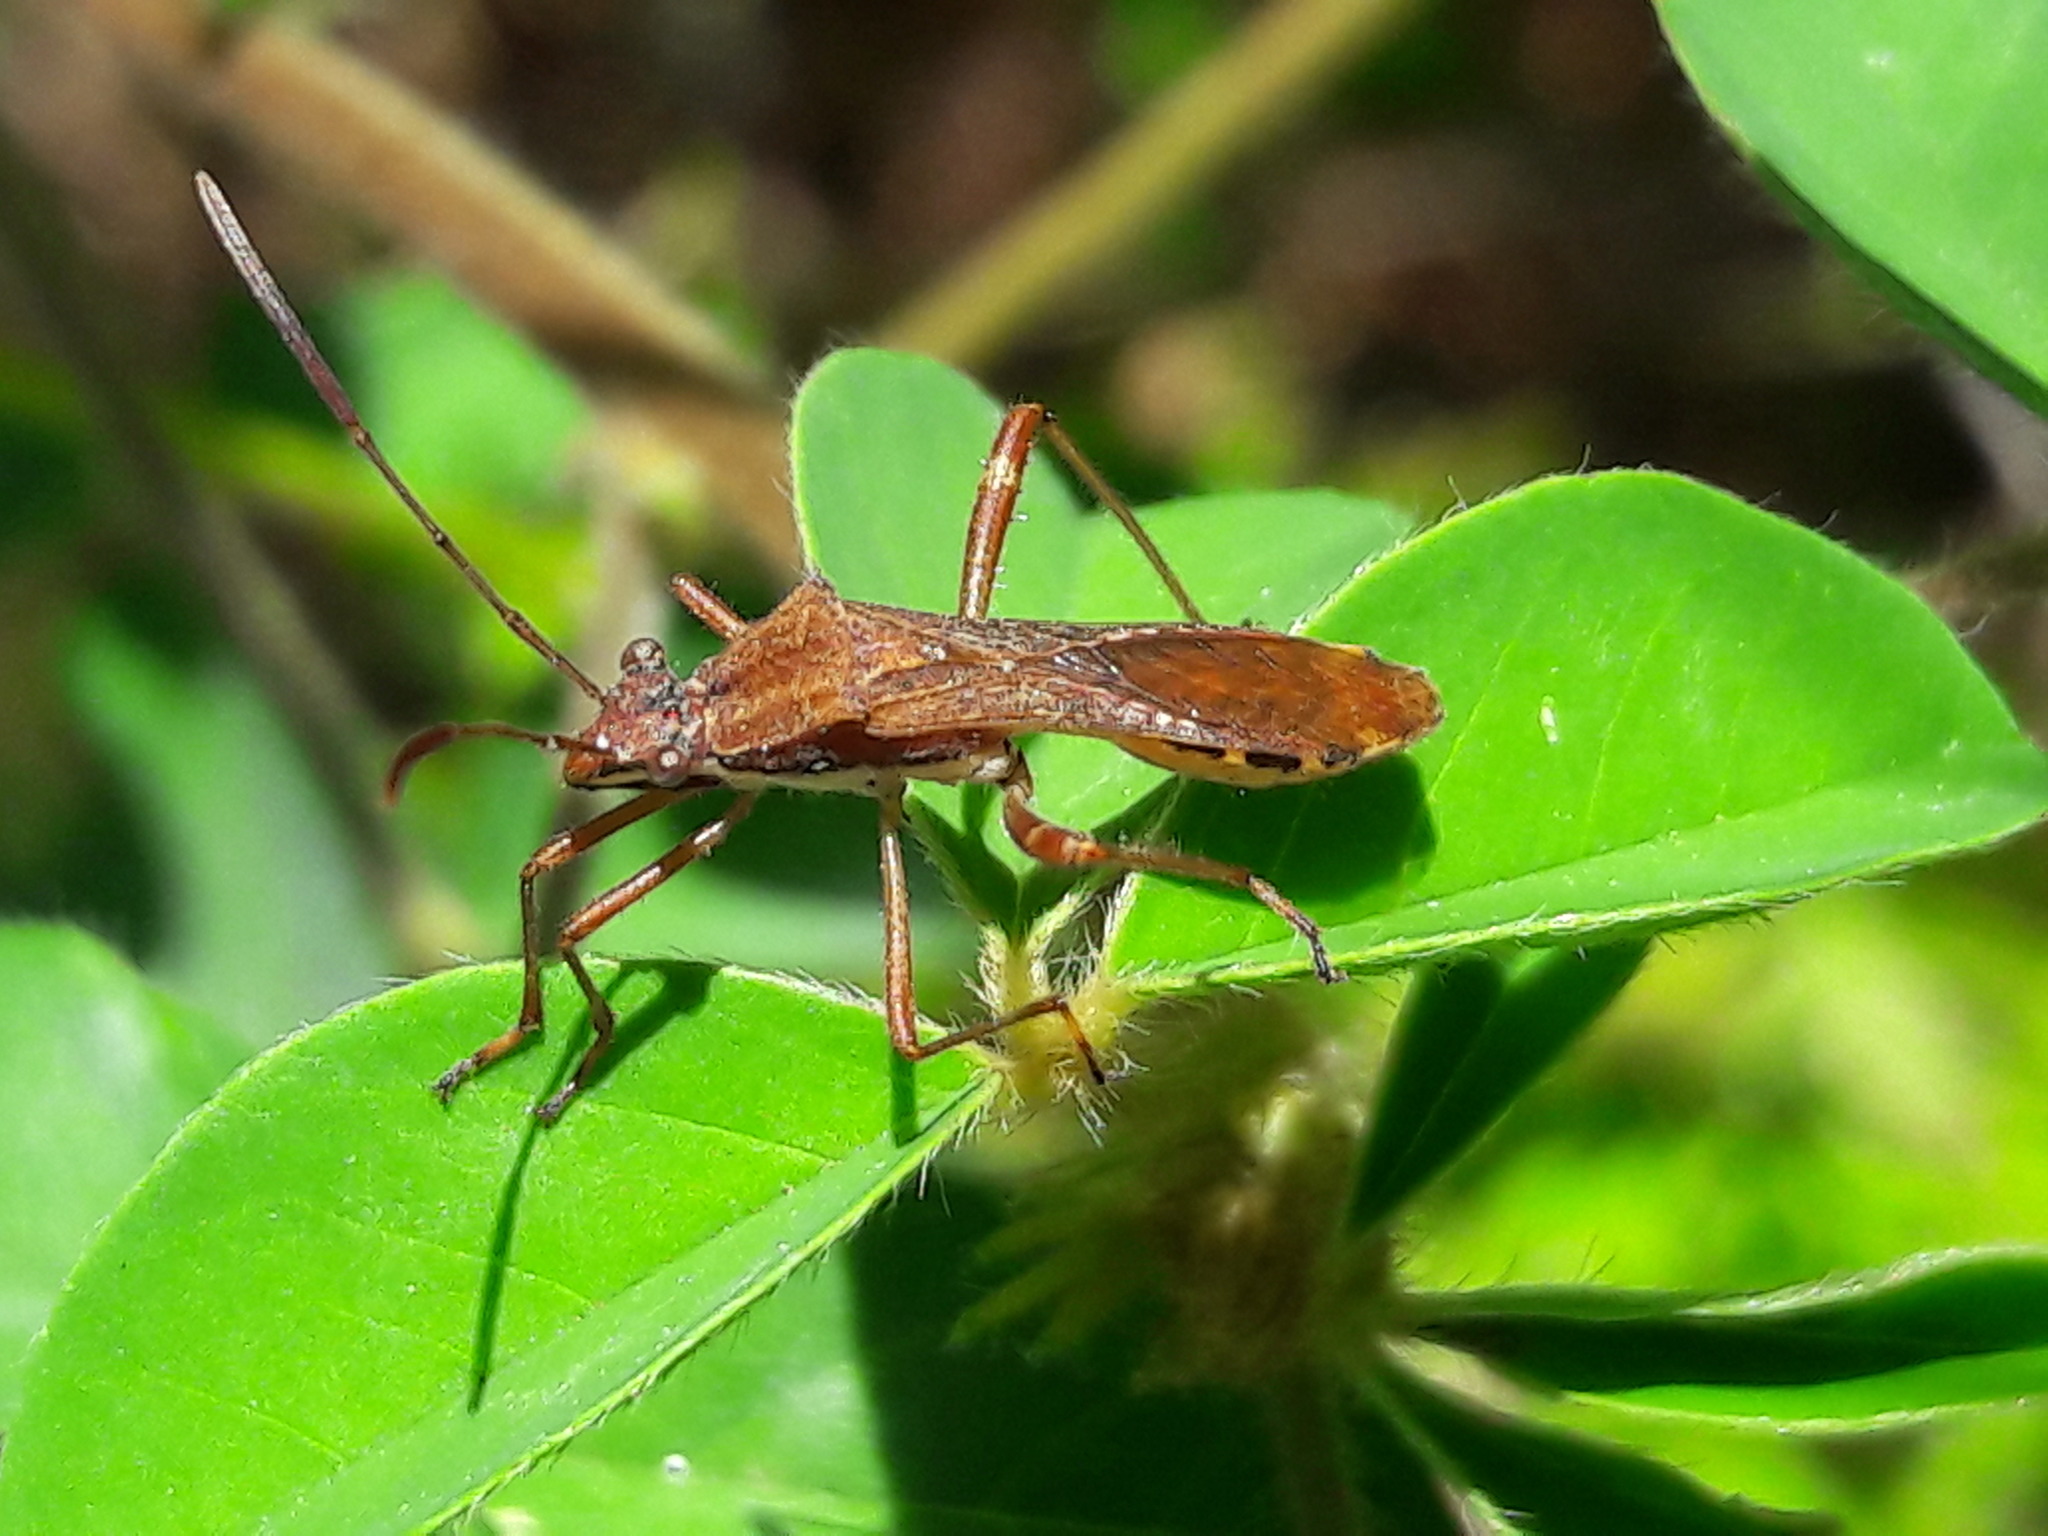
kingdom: Animalia
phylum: Arthropoda
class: Insecta
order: Hemiptera
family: Alydidae
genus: Neomegalotomus
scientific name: Neomegalotomus parvus
